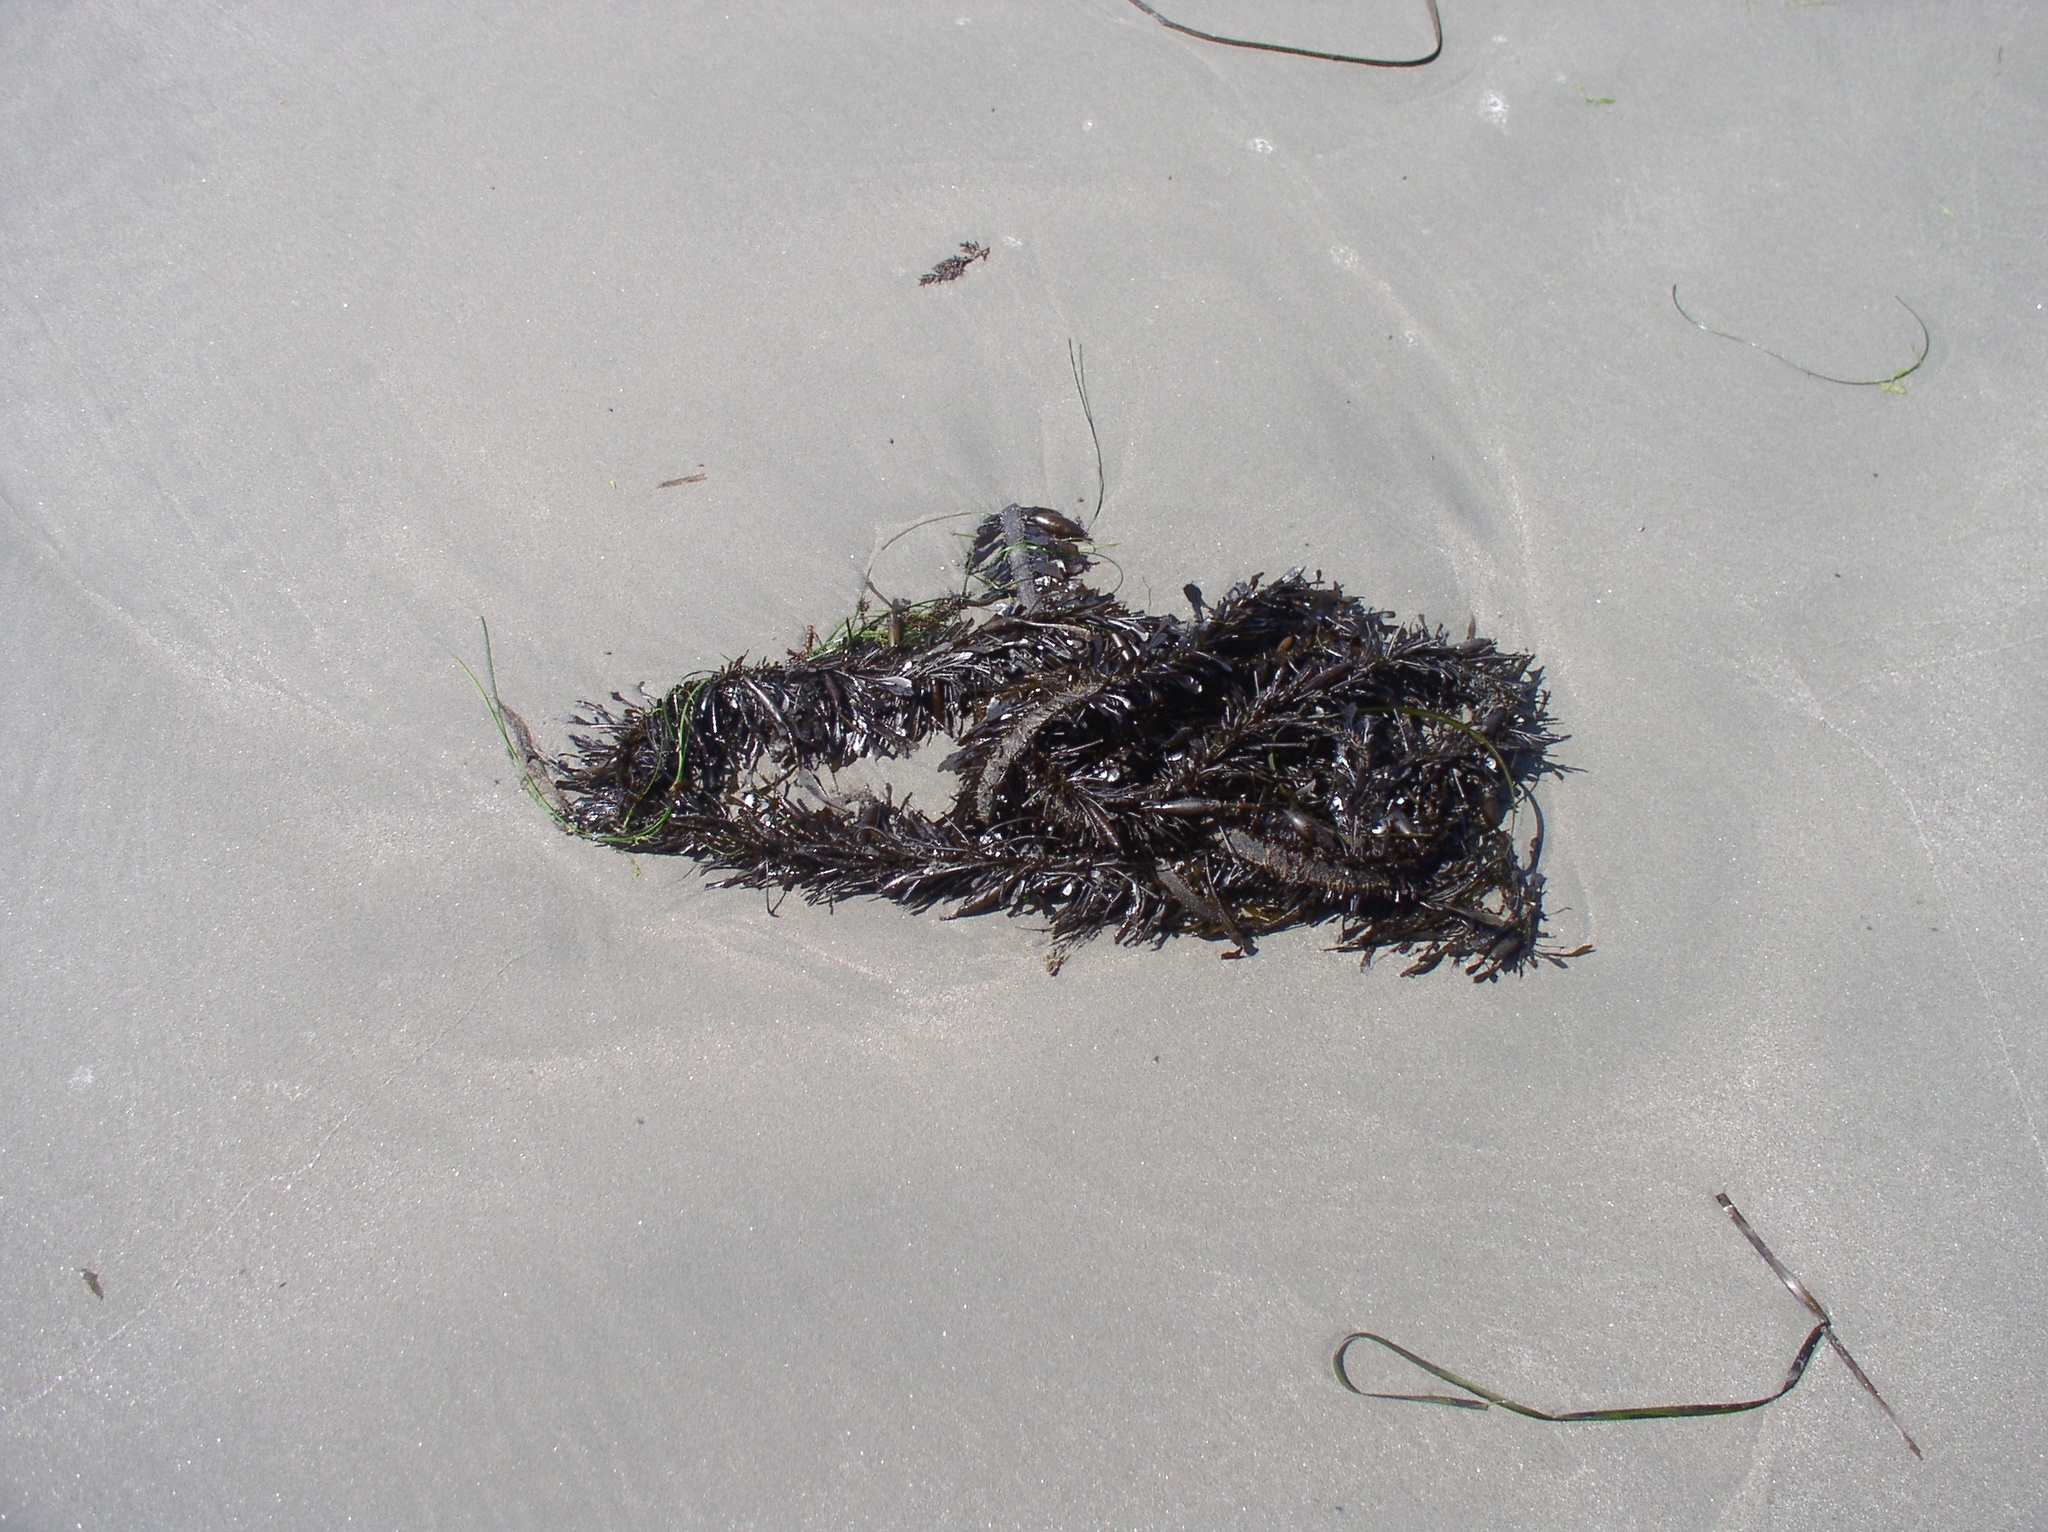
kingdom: Chromista
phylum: Ochrophyta
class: Phaeophyceae
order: Laminariales
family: Lessoniaceae
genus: Egregia
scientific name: Egregia menziesii
